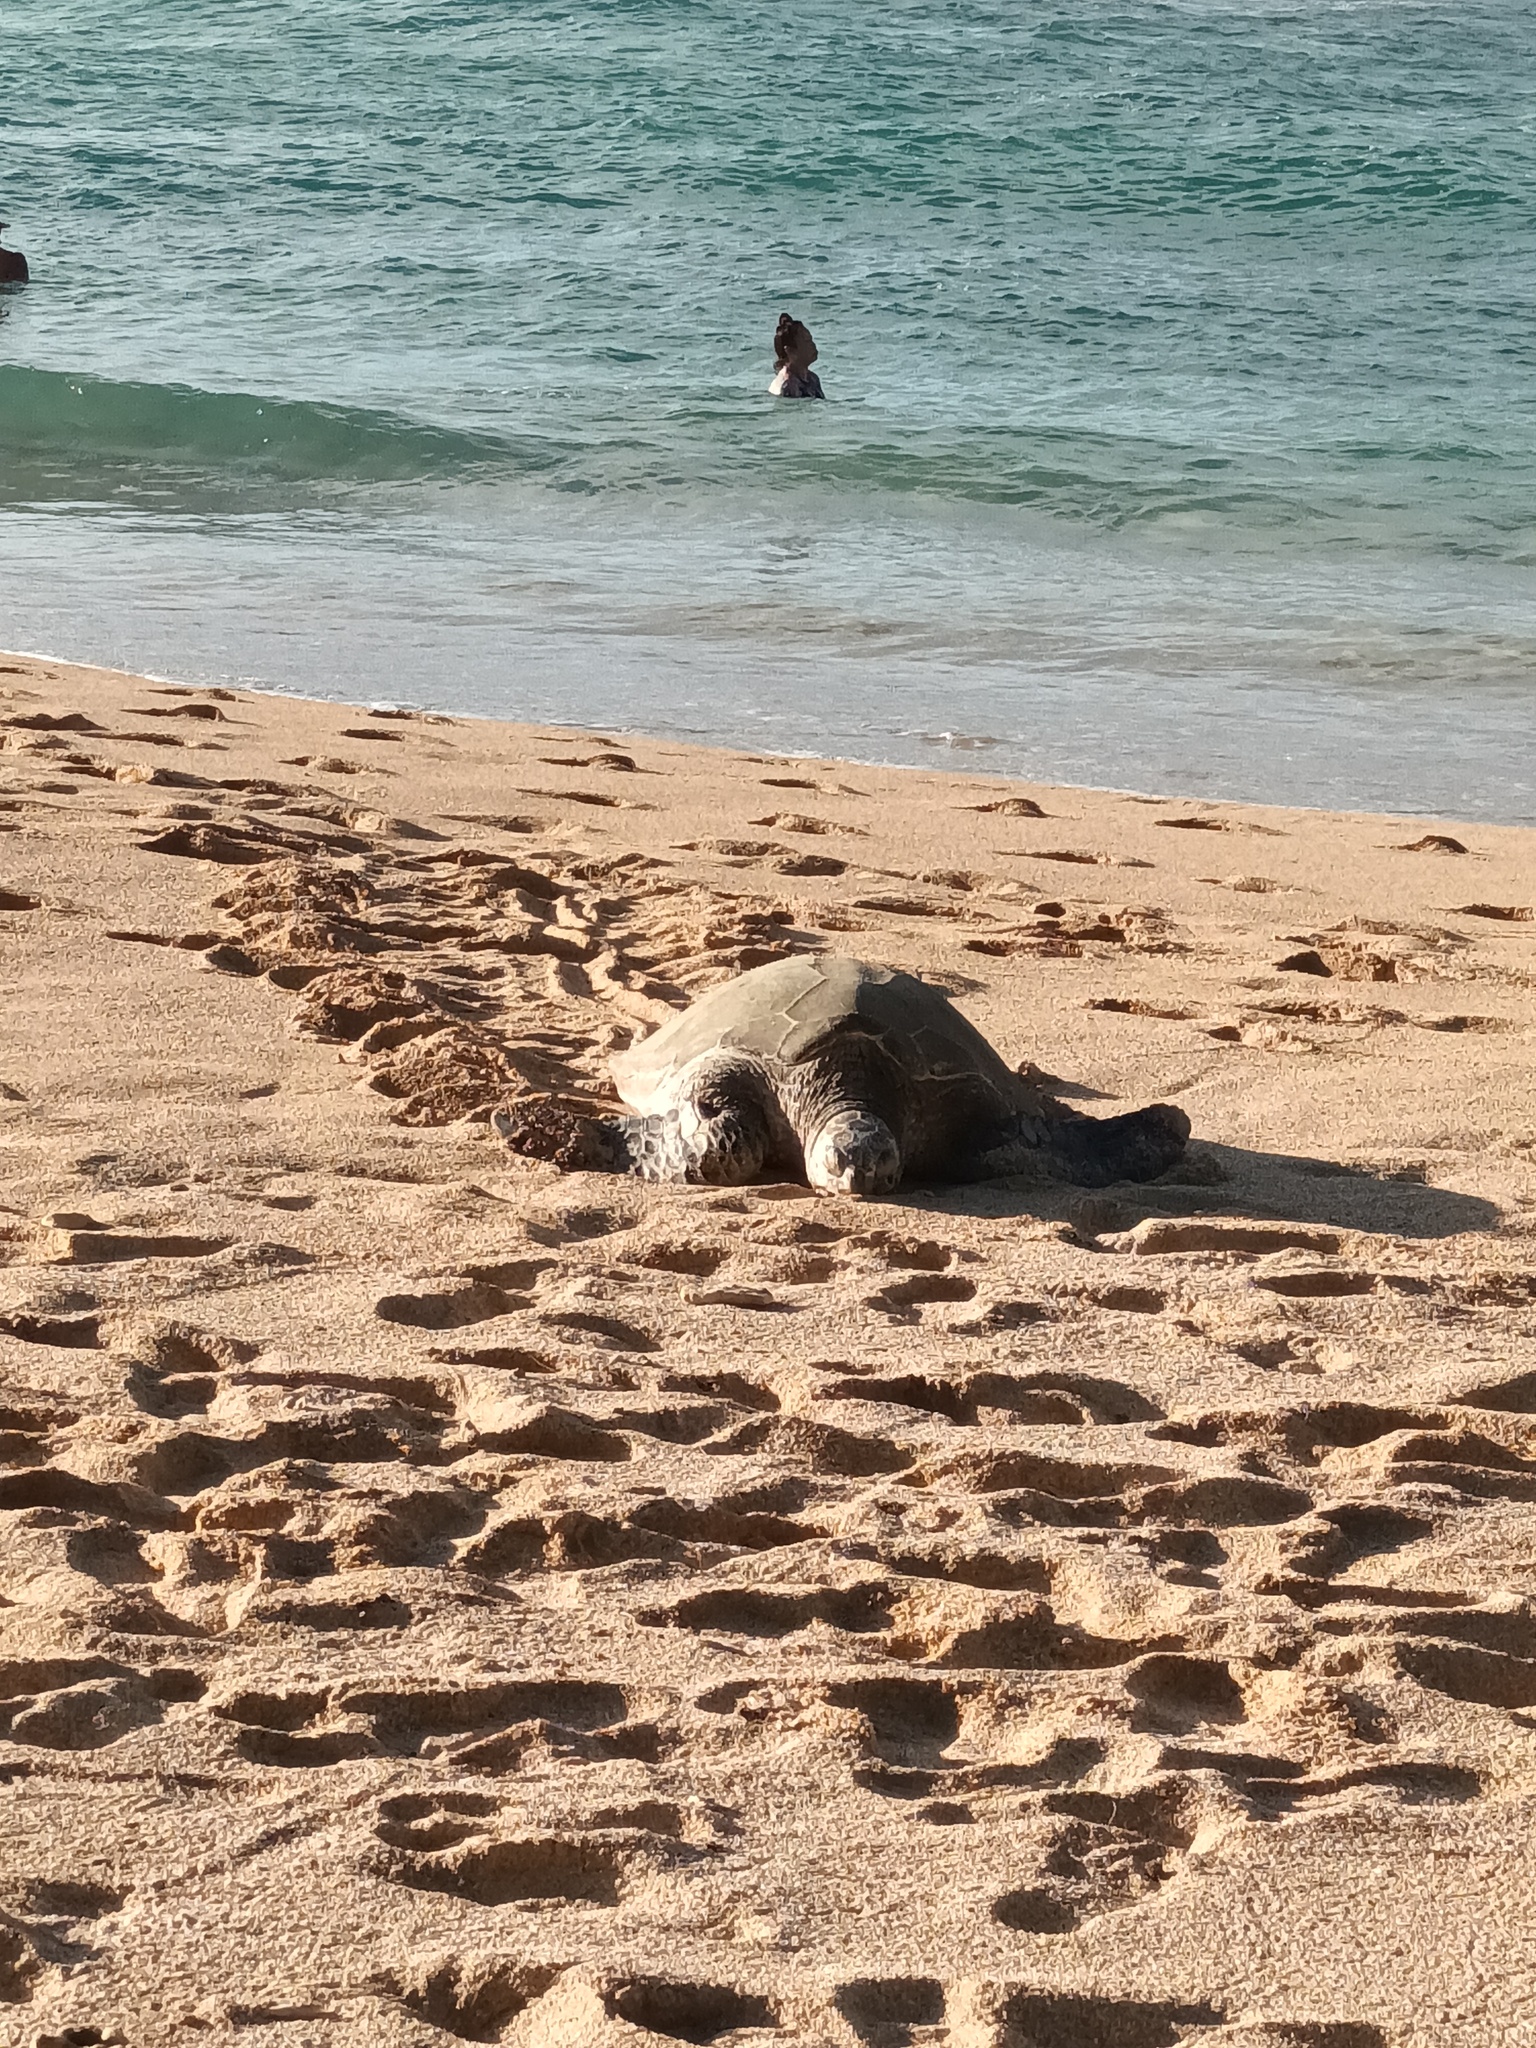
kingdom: Animalia
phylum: Chordata
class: Testudines
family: Cheloniidae
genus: Chelonia
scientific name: Chelonia mydas
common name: Green turtle
